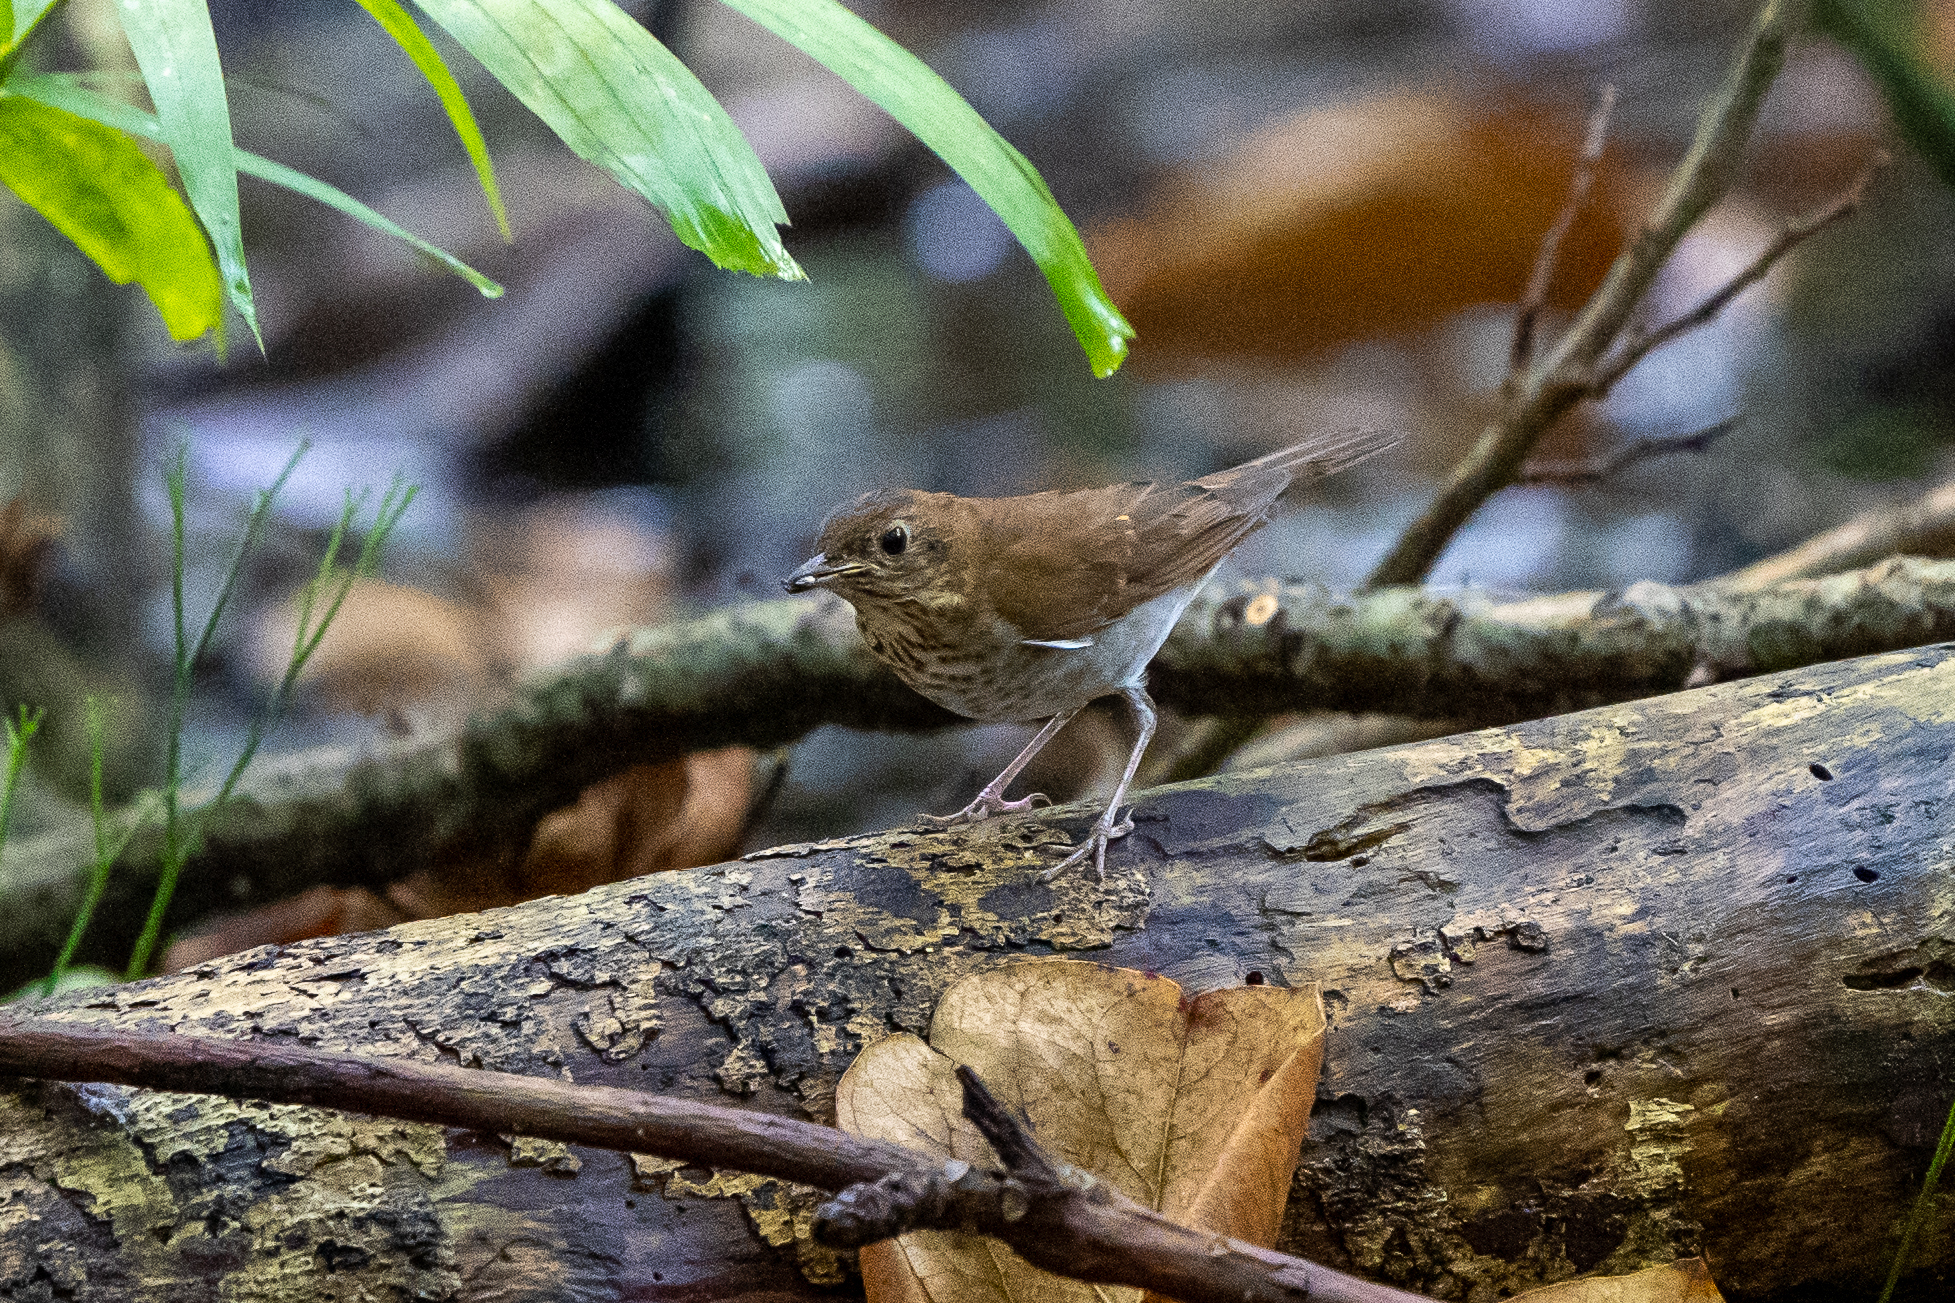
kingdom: Animalia
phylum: Chordata
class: Aves
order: Passeriformes
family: Turdidae
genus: Catharus
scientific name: Catharus fuscescens
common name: Veery
